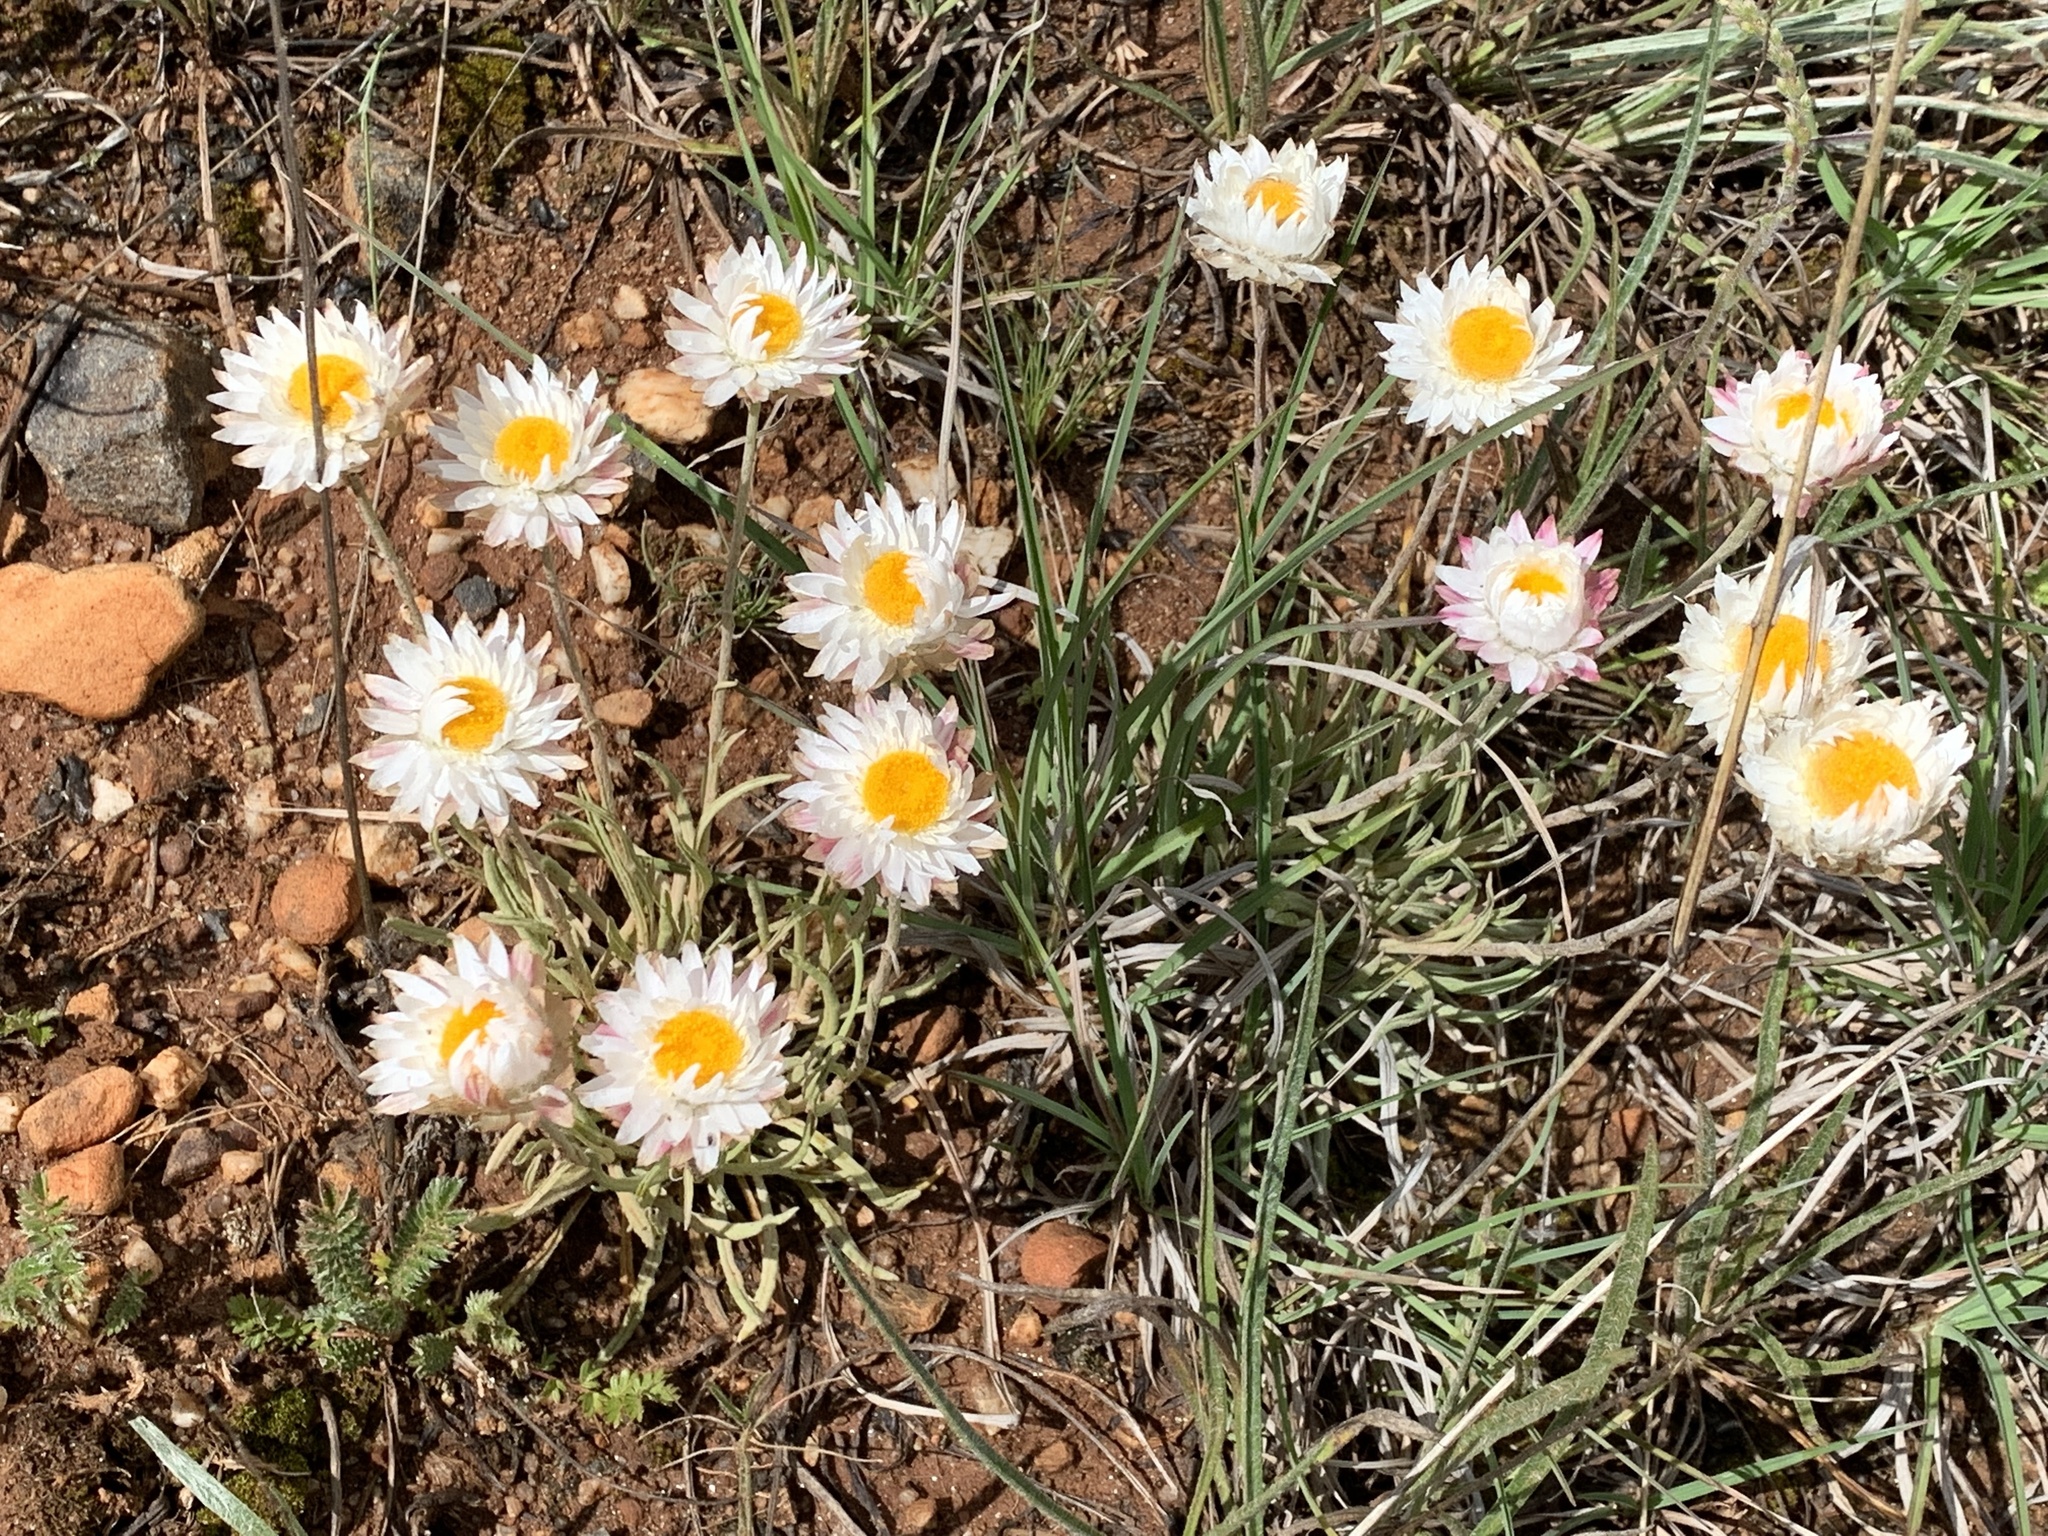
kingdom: Plantae
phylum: Tracheophyta
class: Magnoliopsida
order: Asterales
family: Asteraceae
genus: Leucochrysum
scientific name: Leucochrysum albicans
